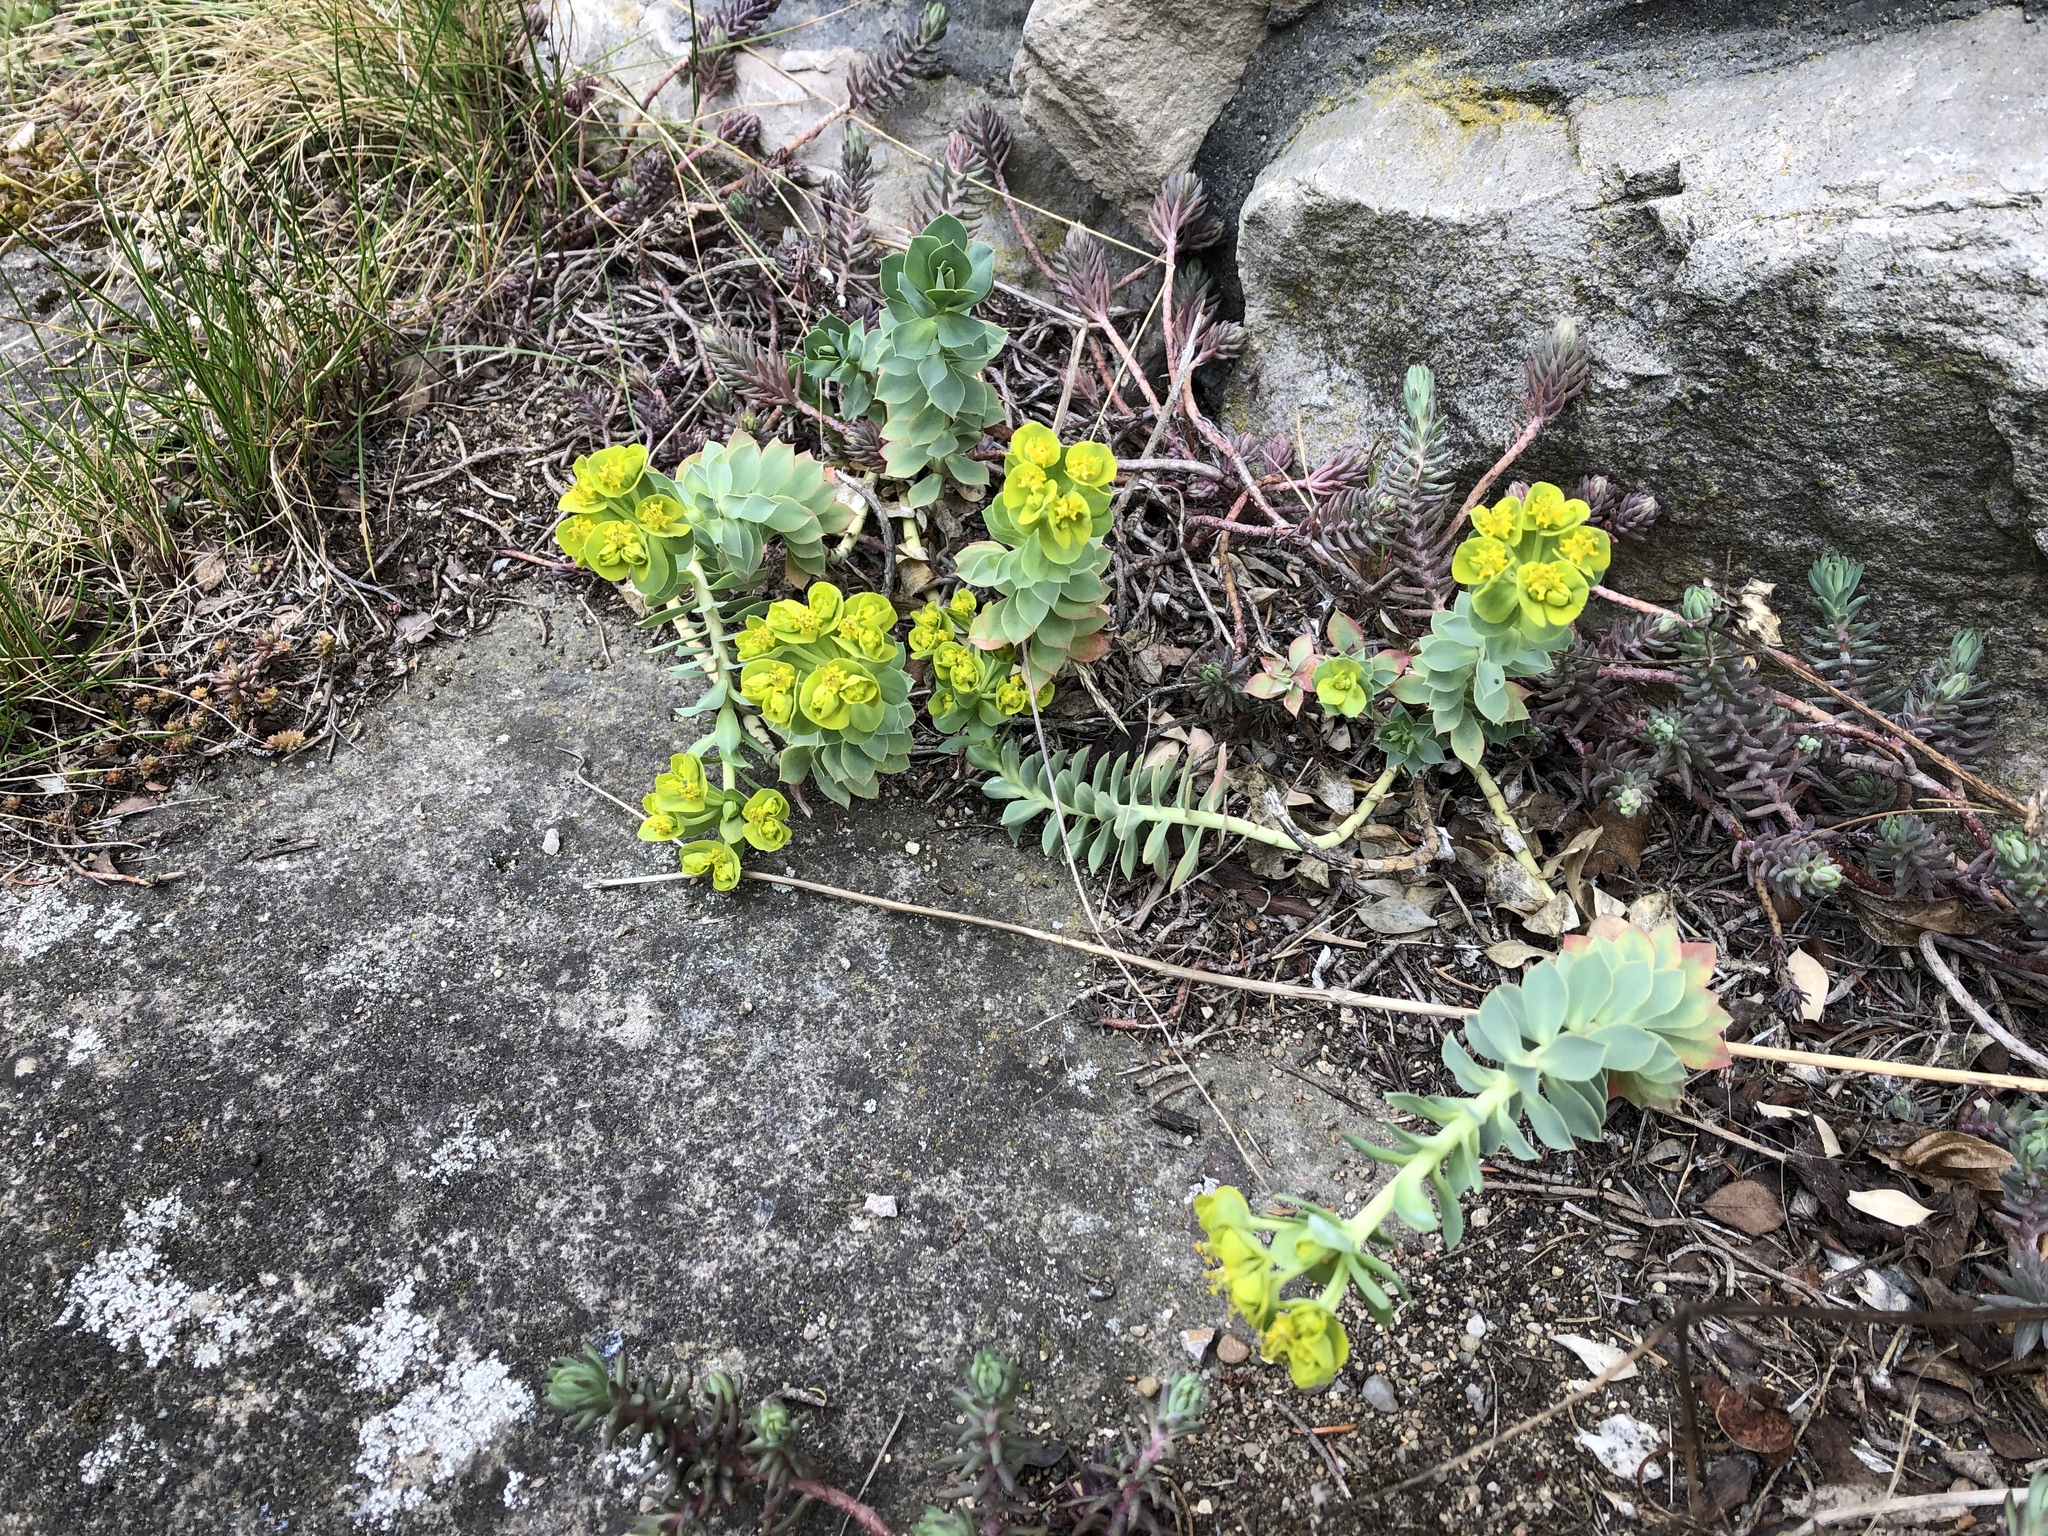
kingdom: Plantae
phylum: Tracheophyta
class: Magnoliopsida
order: Malpighiales
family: Euphorbiaceae
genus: Euphorbia
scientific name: Euphorbia myrsinites
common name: Myrtle spurge
